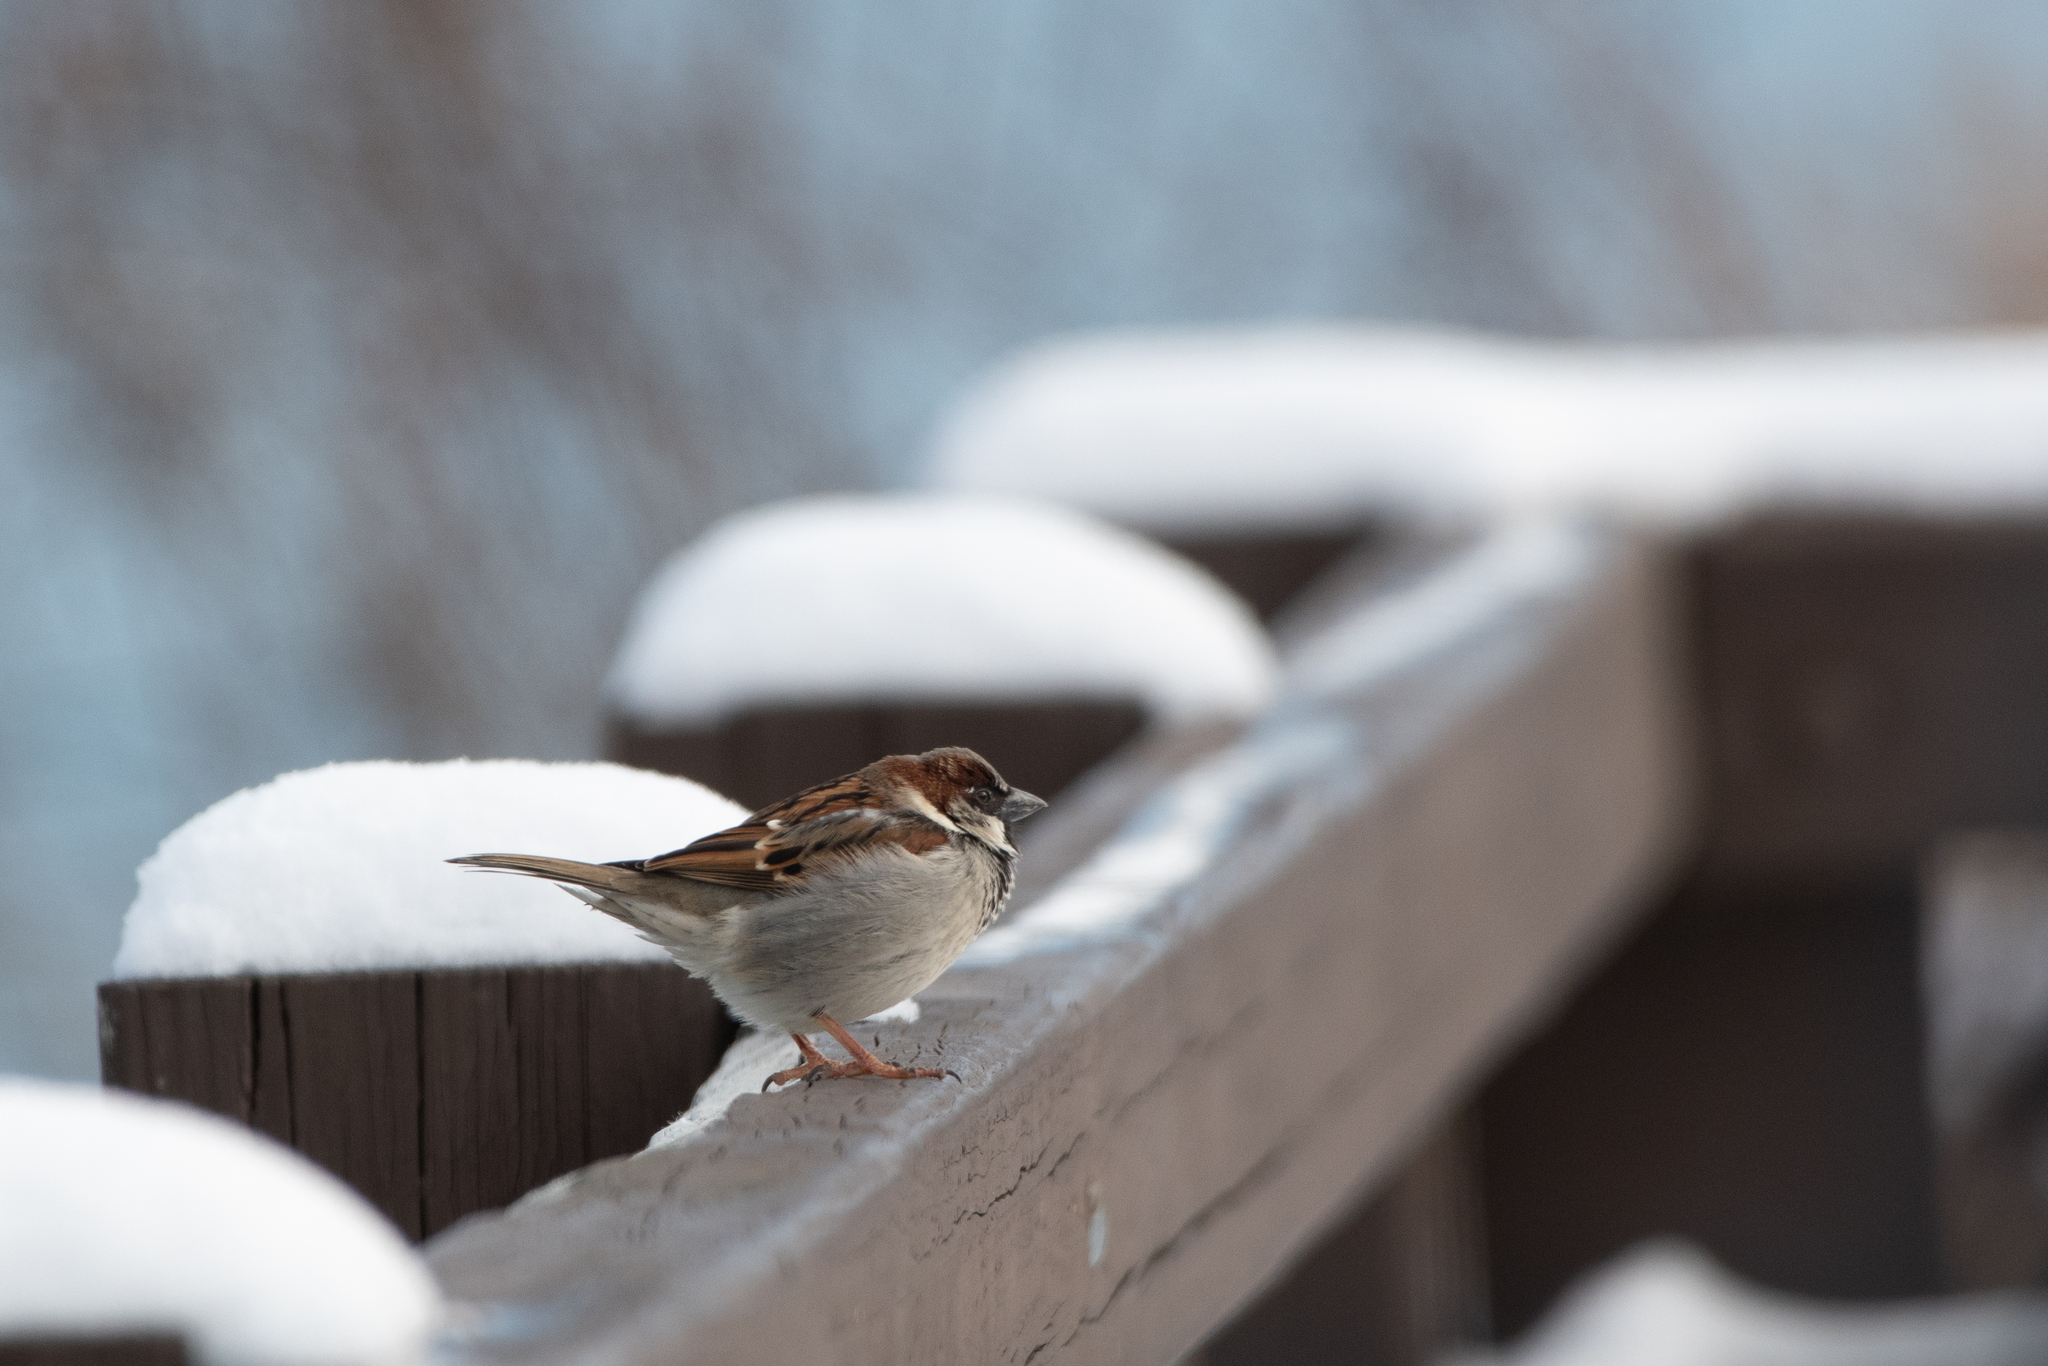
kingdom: Animalia
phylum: Chordata
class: Aves
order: Passeriformes
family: Passeridae
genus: Passer
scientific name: Passer domesticus
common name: House sparrow
